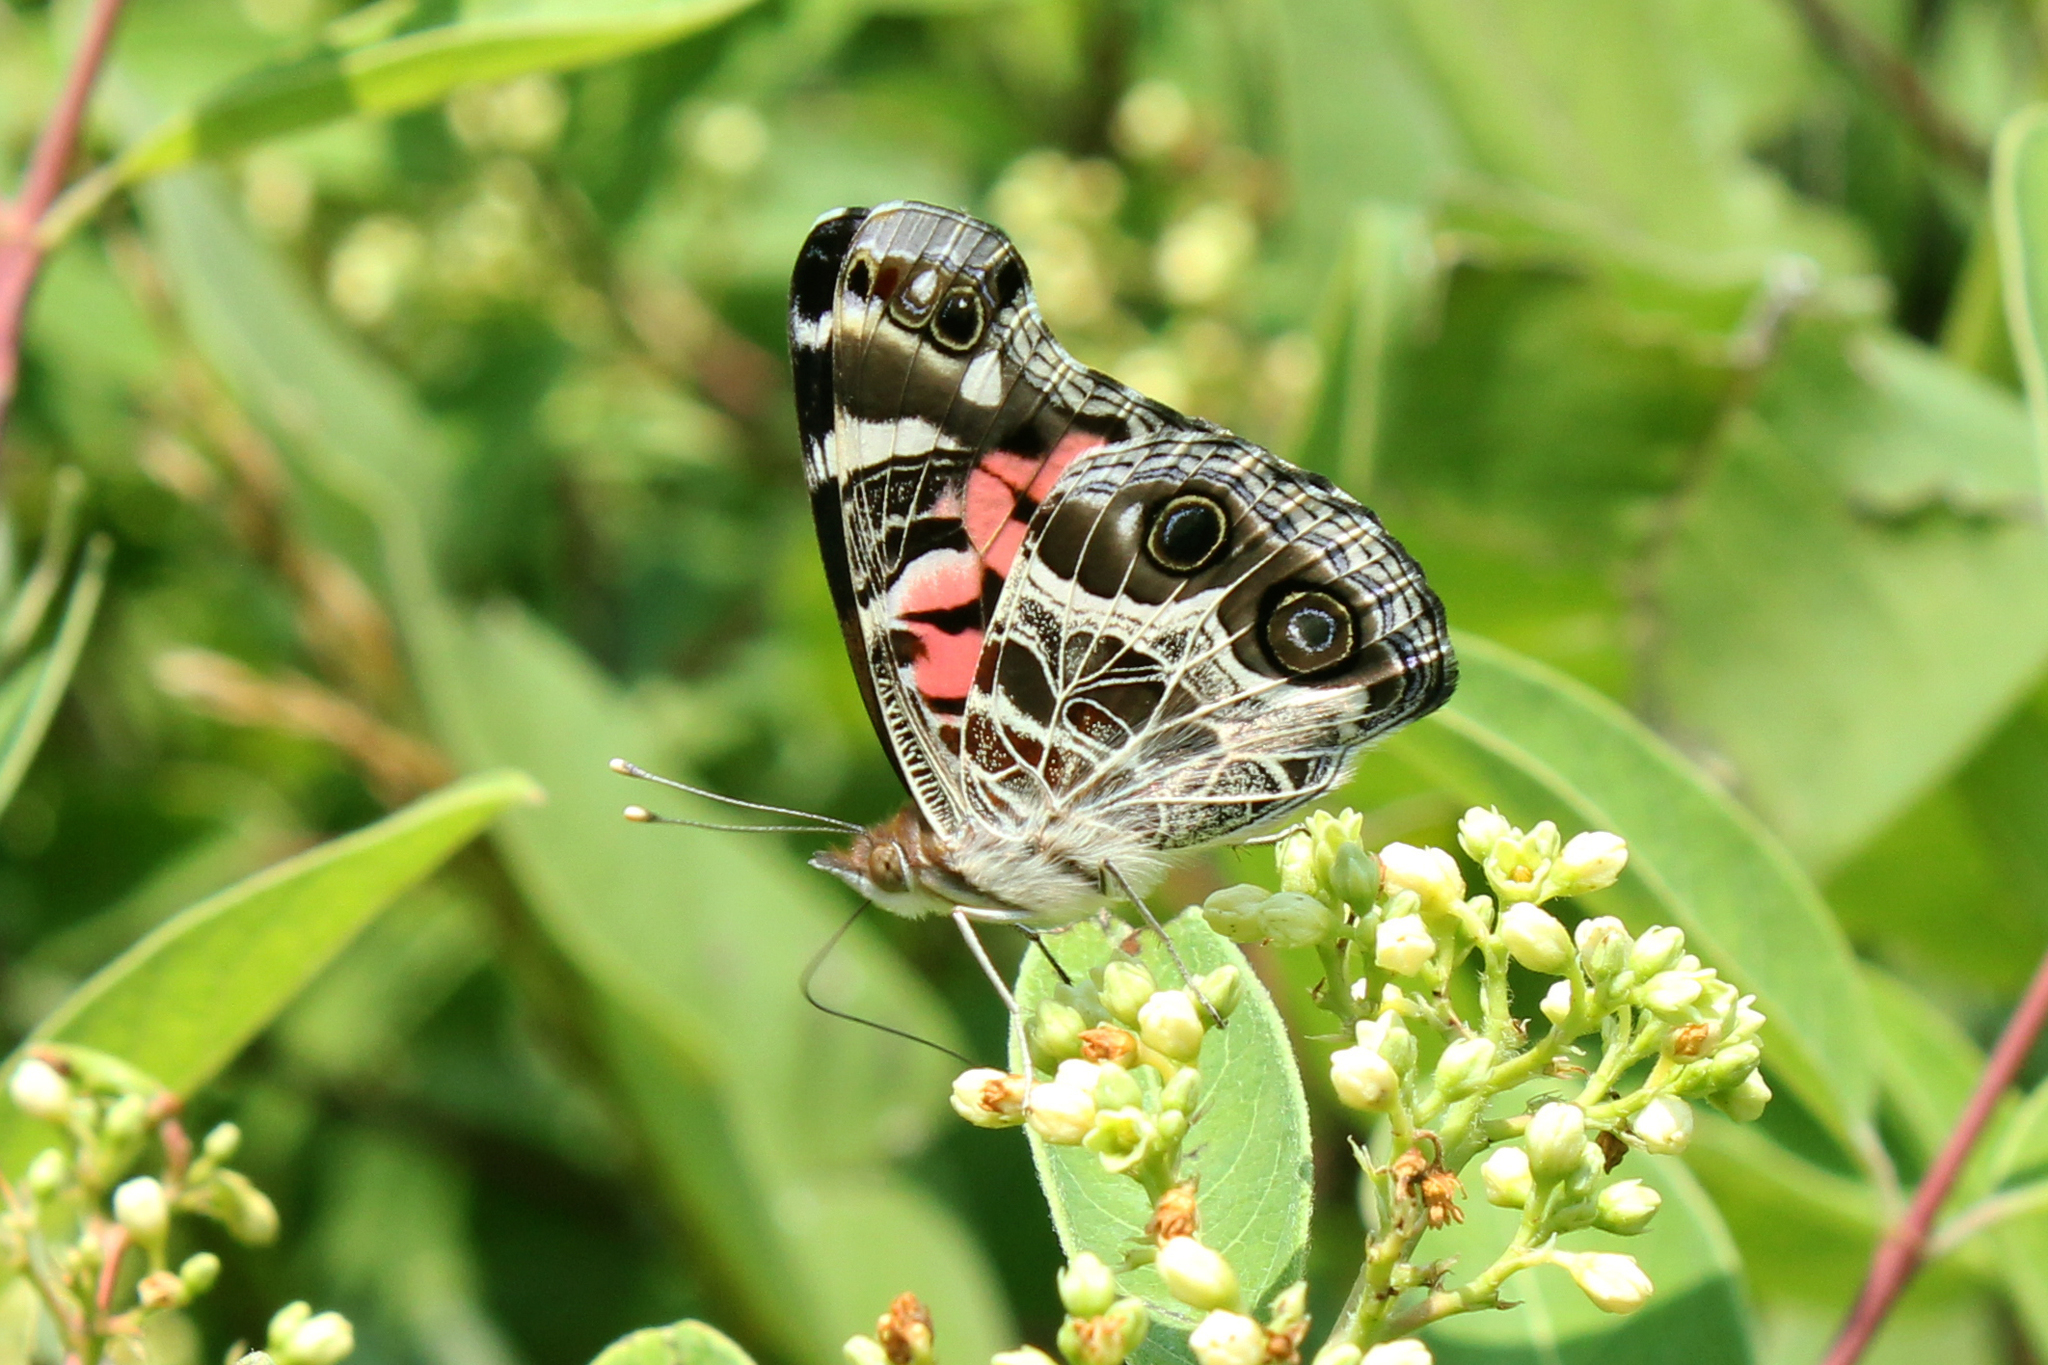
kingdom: Animalia
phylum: Arthropoda
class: Insecta
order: Lepidoptera
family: Nymphalidae
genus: Vanessa
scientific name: Vanessa virginiensis
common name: American lady
